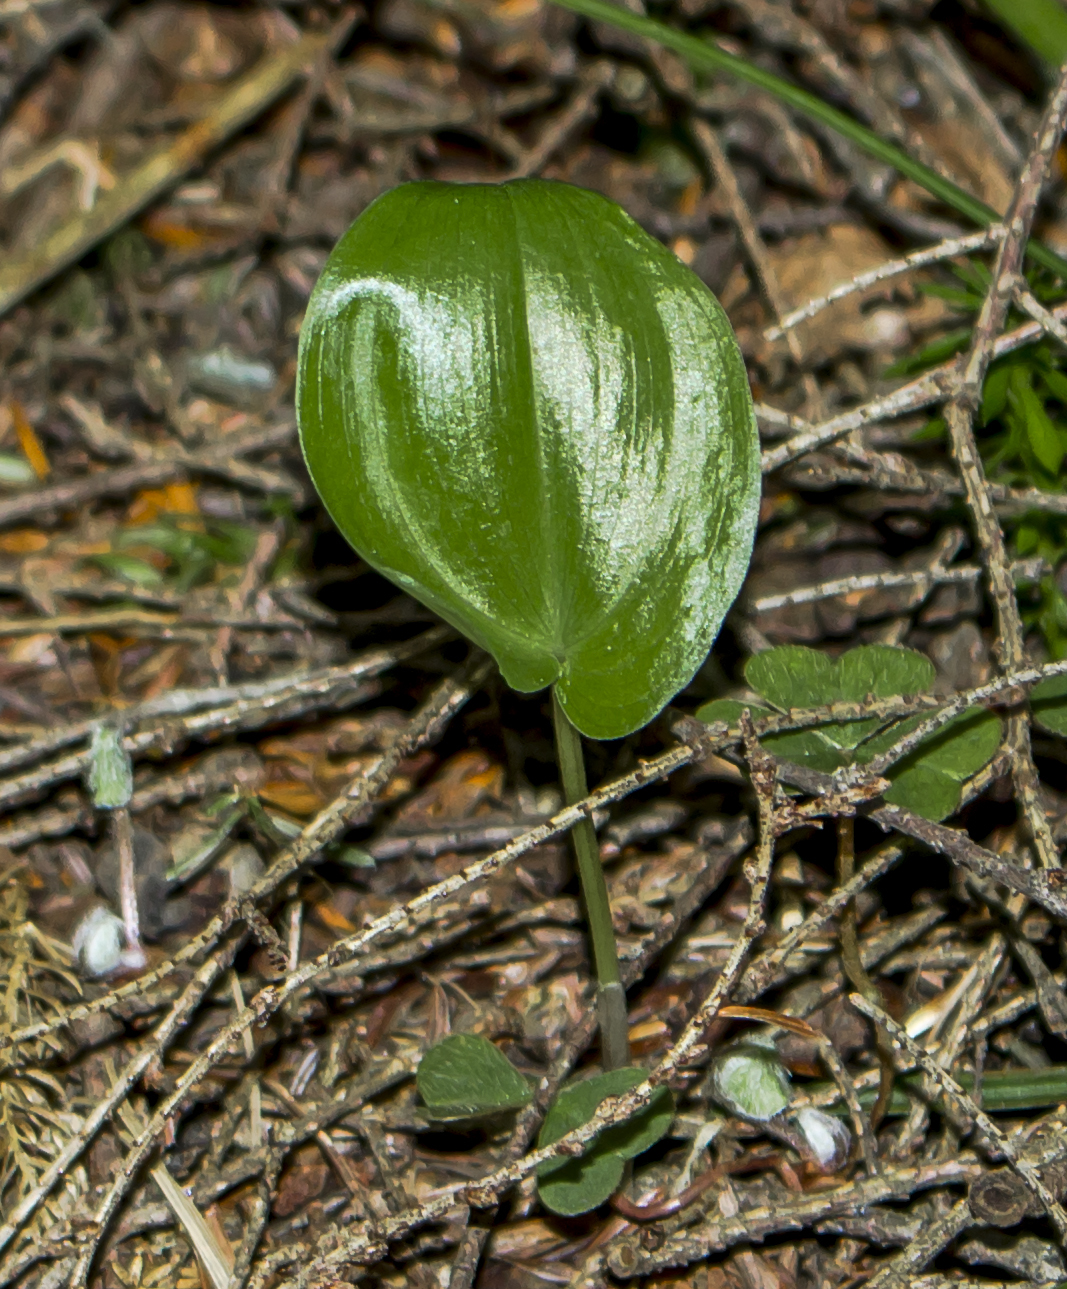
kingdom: Plantae
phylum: Tracheophyta
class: Liliopsida
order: Asparagales
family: Asparagaceae
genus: Maianthemum
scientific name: Maianthemum canadense
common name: False lily-of-the-valley
